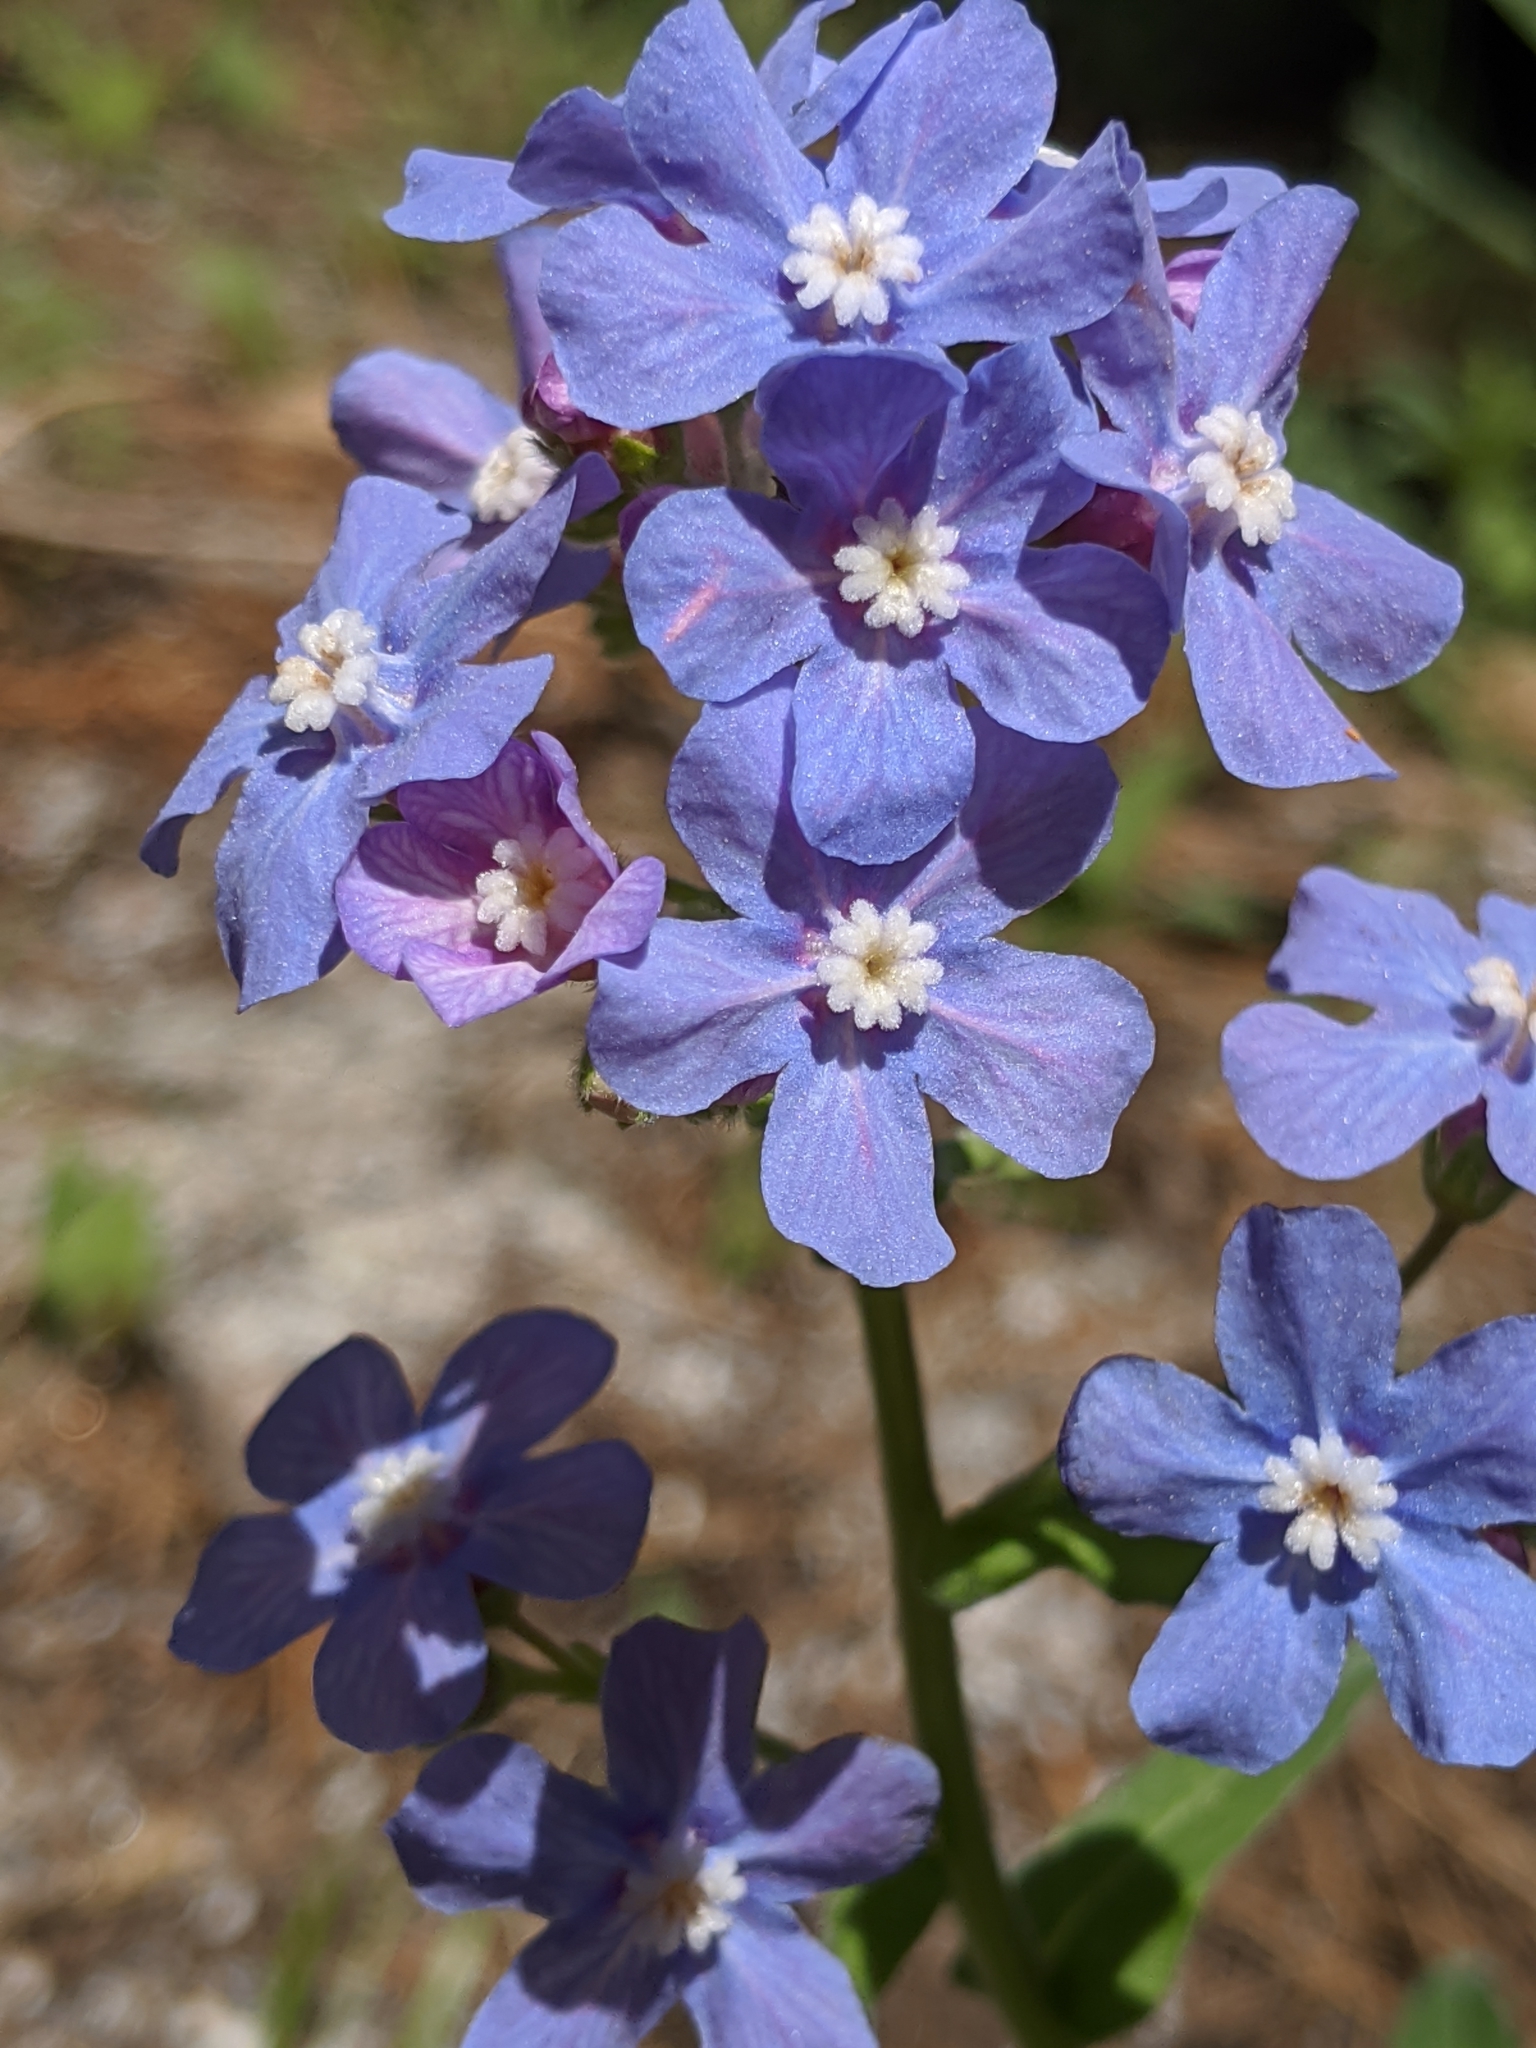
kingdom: Plantae
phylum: Tracheophyta
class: Magnoliopsida
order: Boraginales
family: Boraginaceae
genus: Hackelia
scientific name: Hackelia velutina
